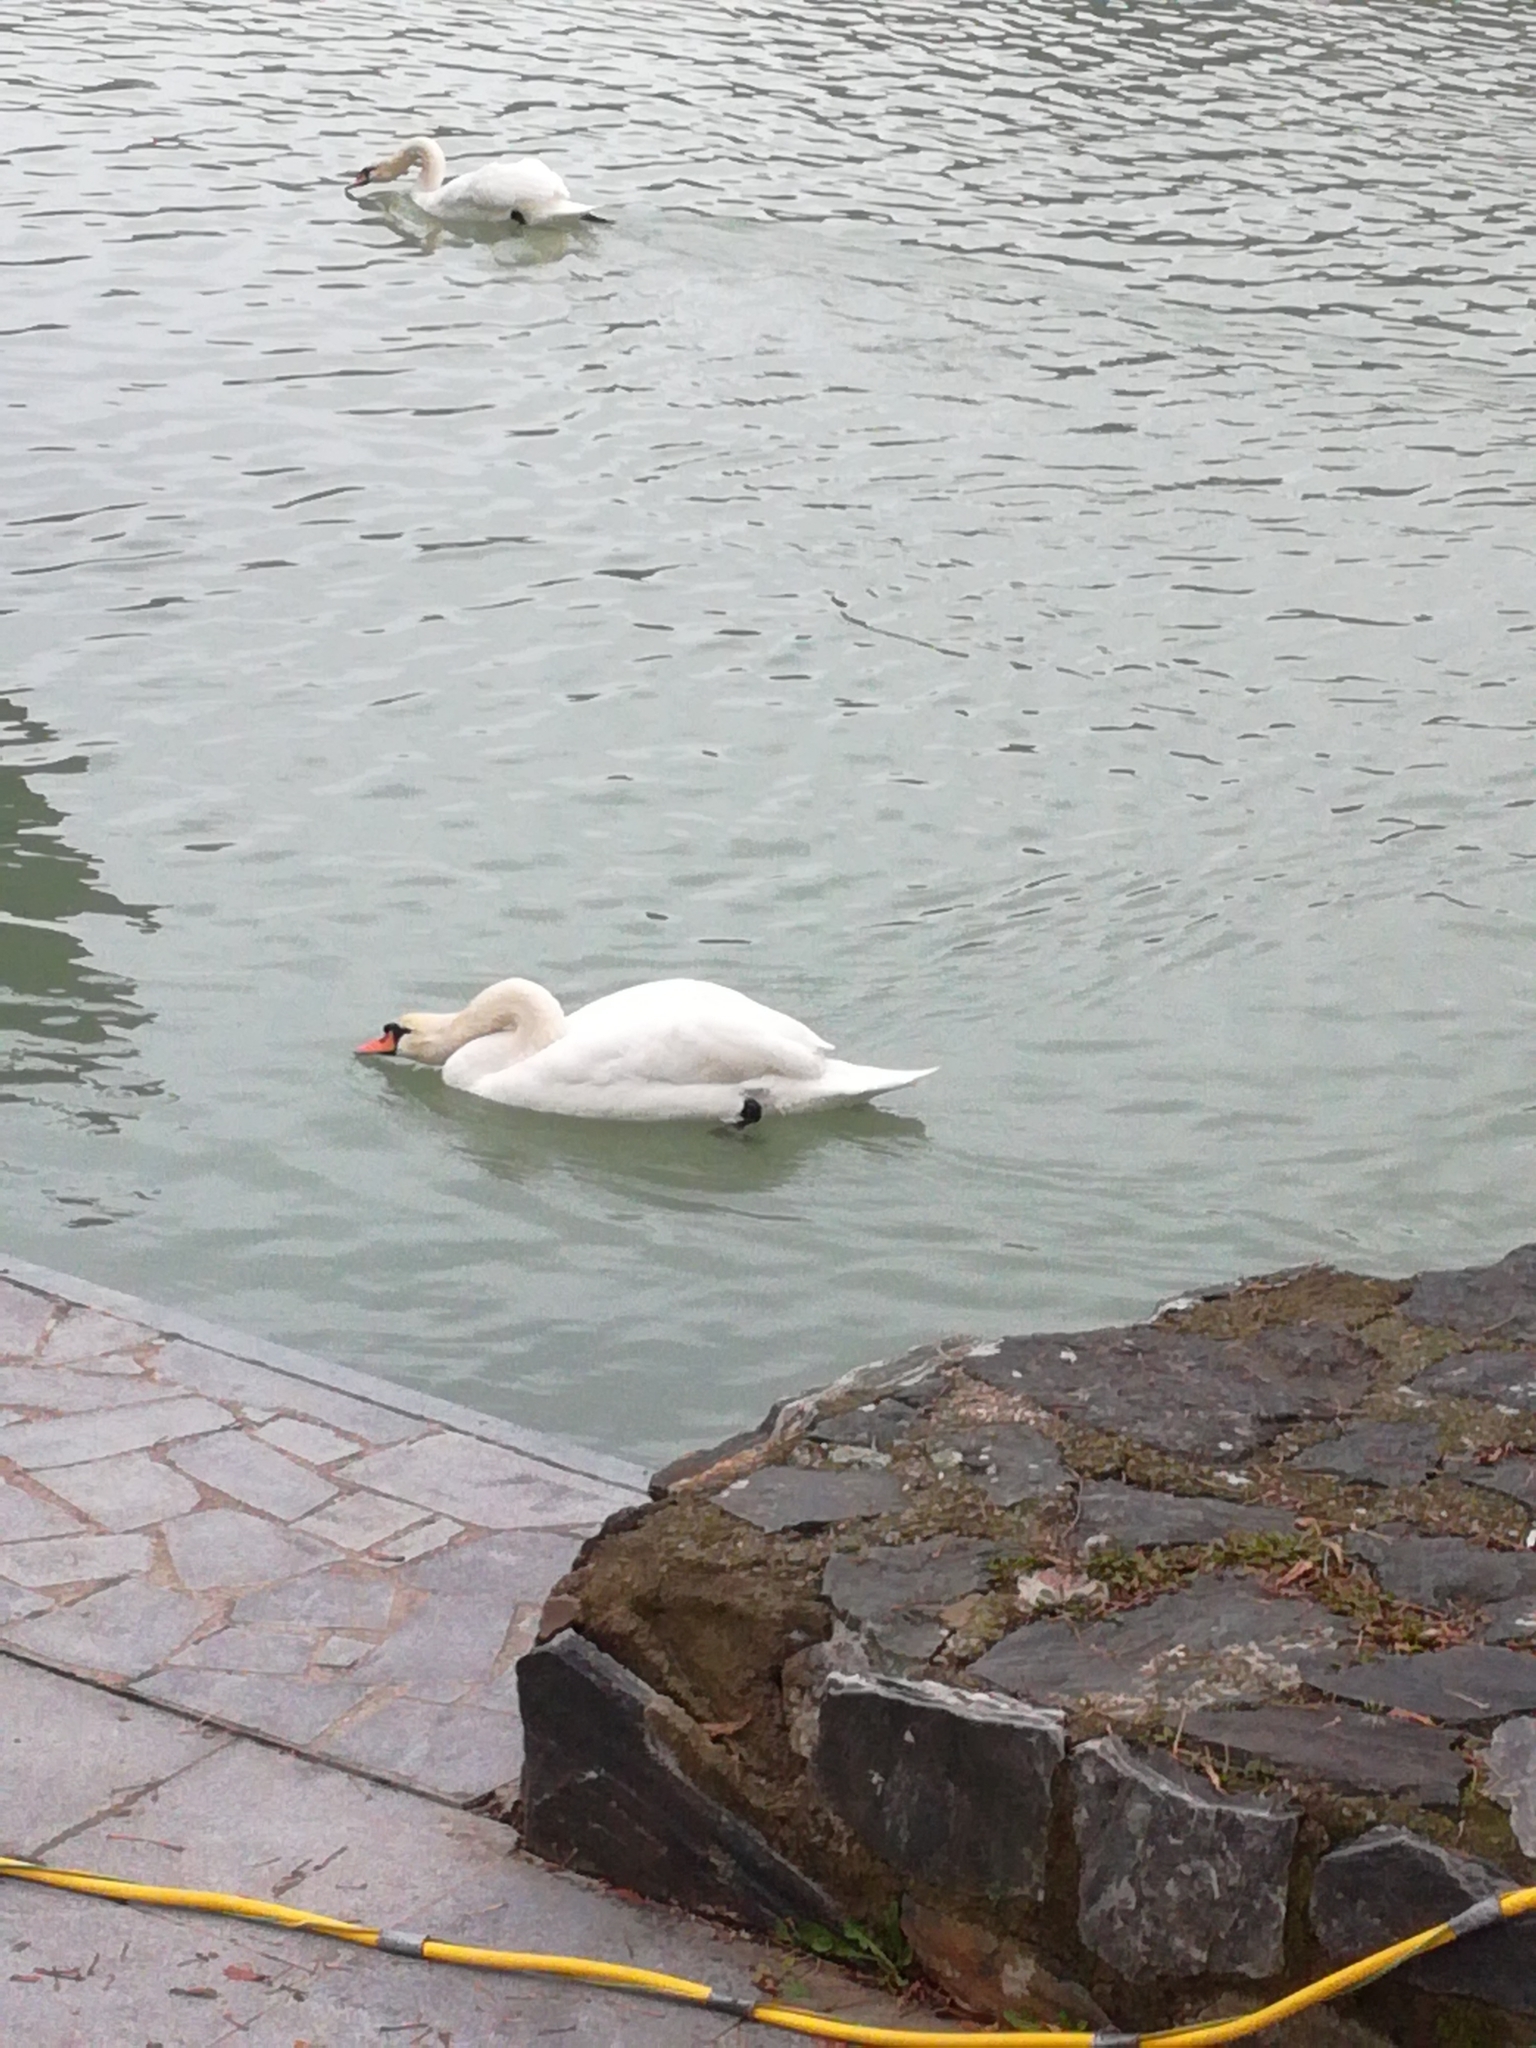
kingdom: Animalia
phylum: Chordata
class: Aves
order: Anseriformes
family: Anatidae
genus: Cygnus
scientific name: Cygnus olor
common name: Mute swan
